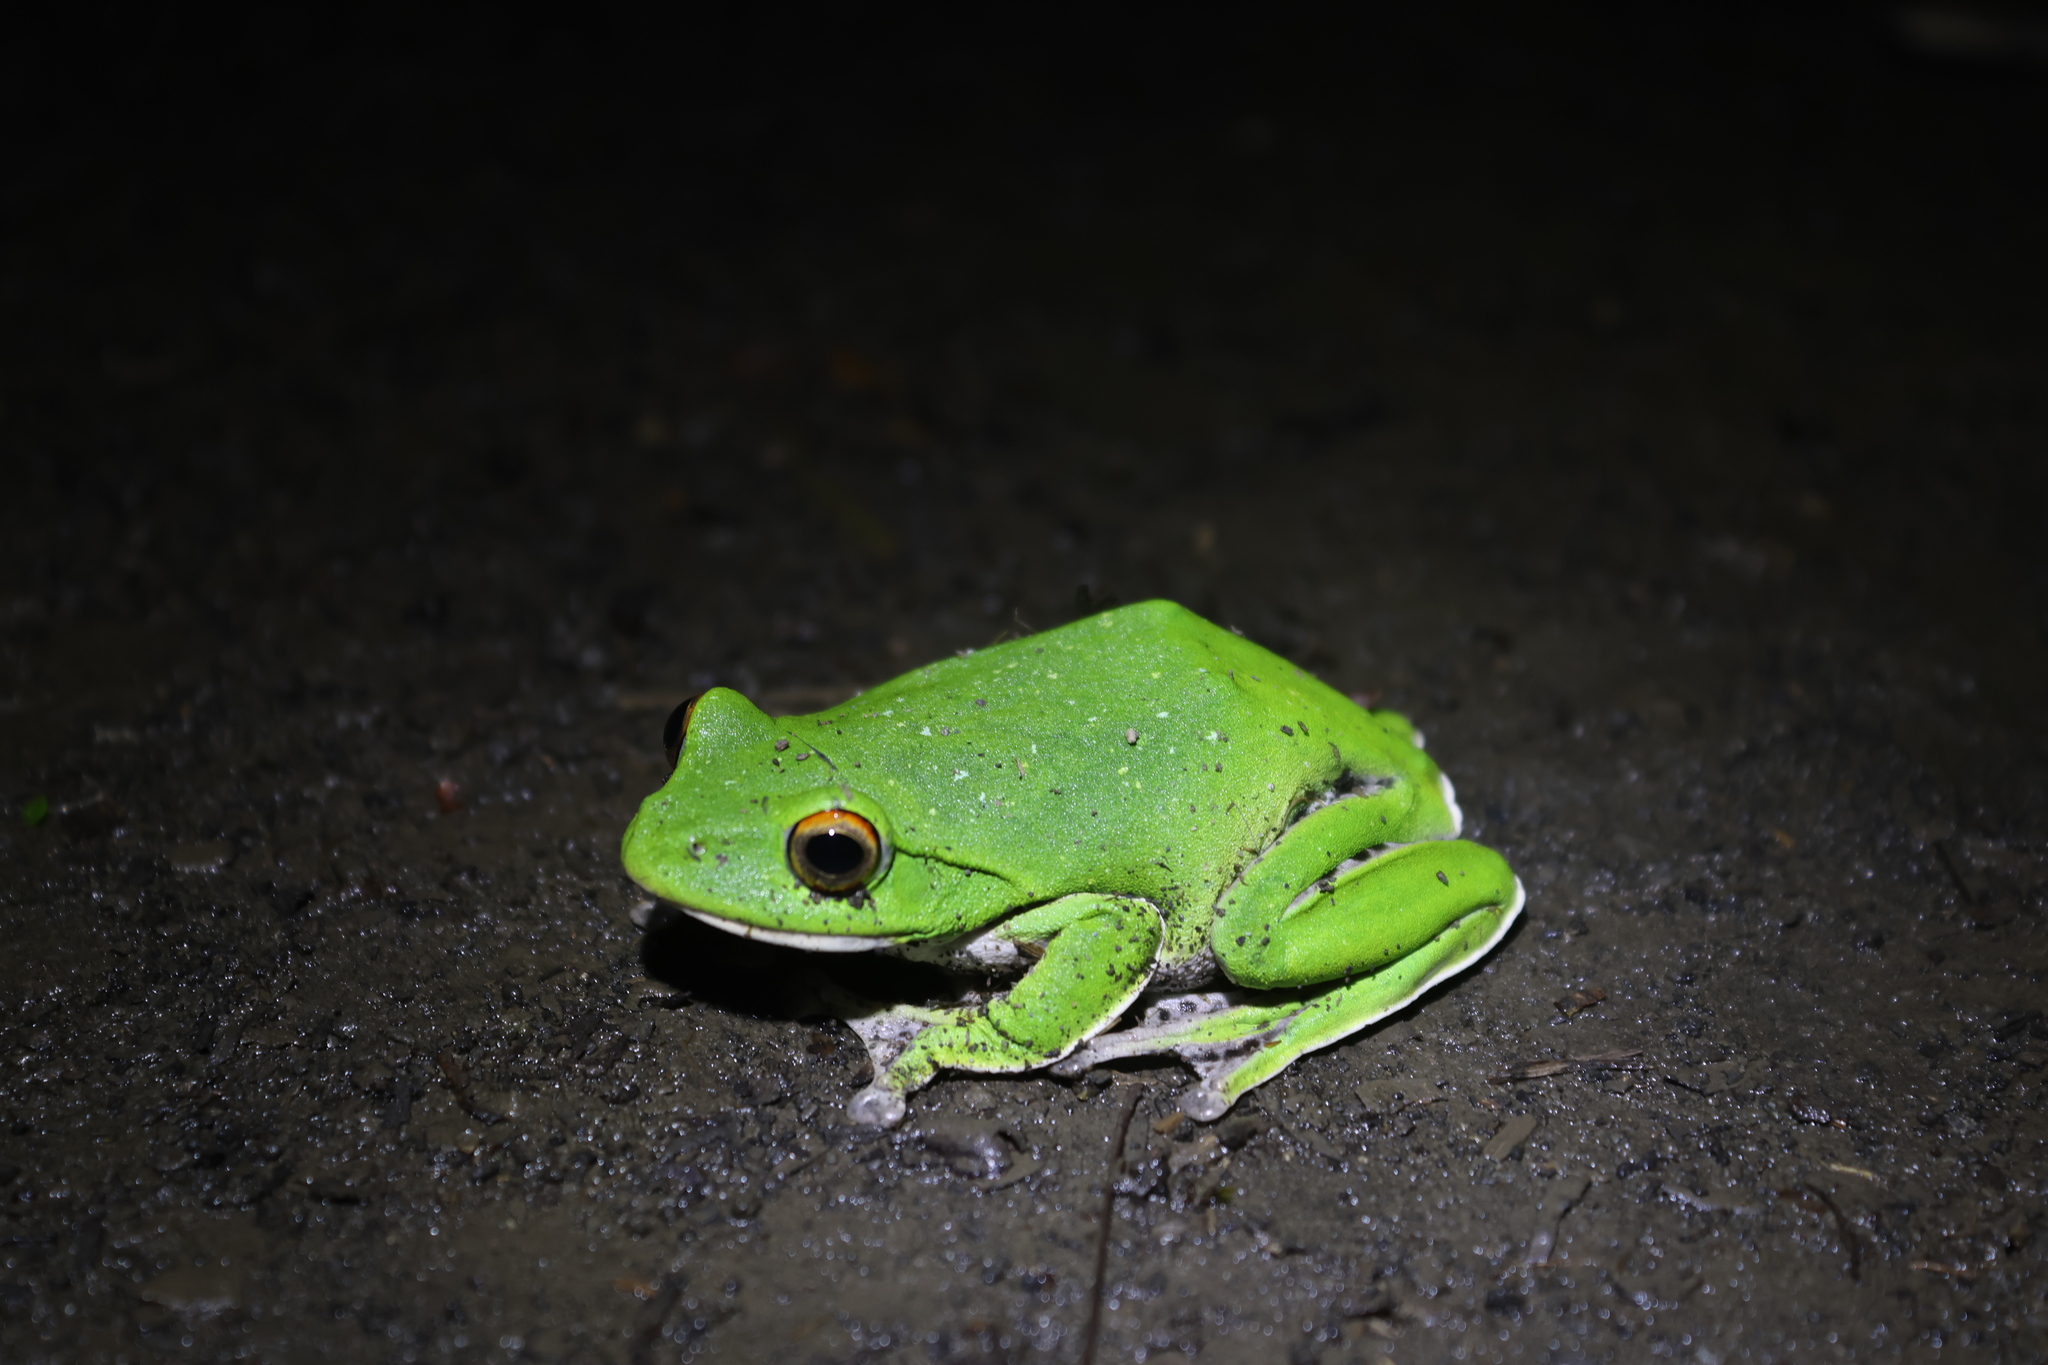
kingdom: Animalia
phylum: Chordata
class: Amphibia
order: Anura
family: Rhacophoridae
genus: Zhangixalus
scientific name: Zhangixalus moltrechti
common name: Moltrecht's treefrog
